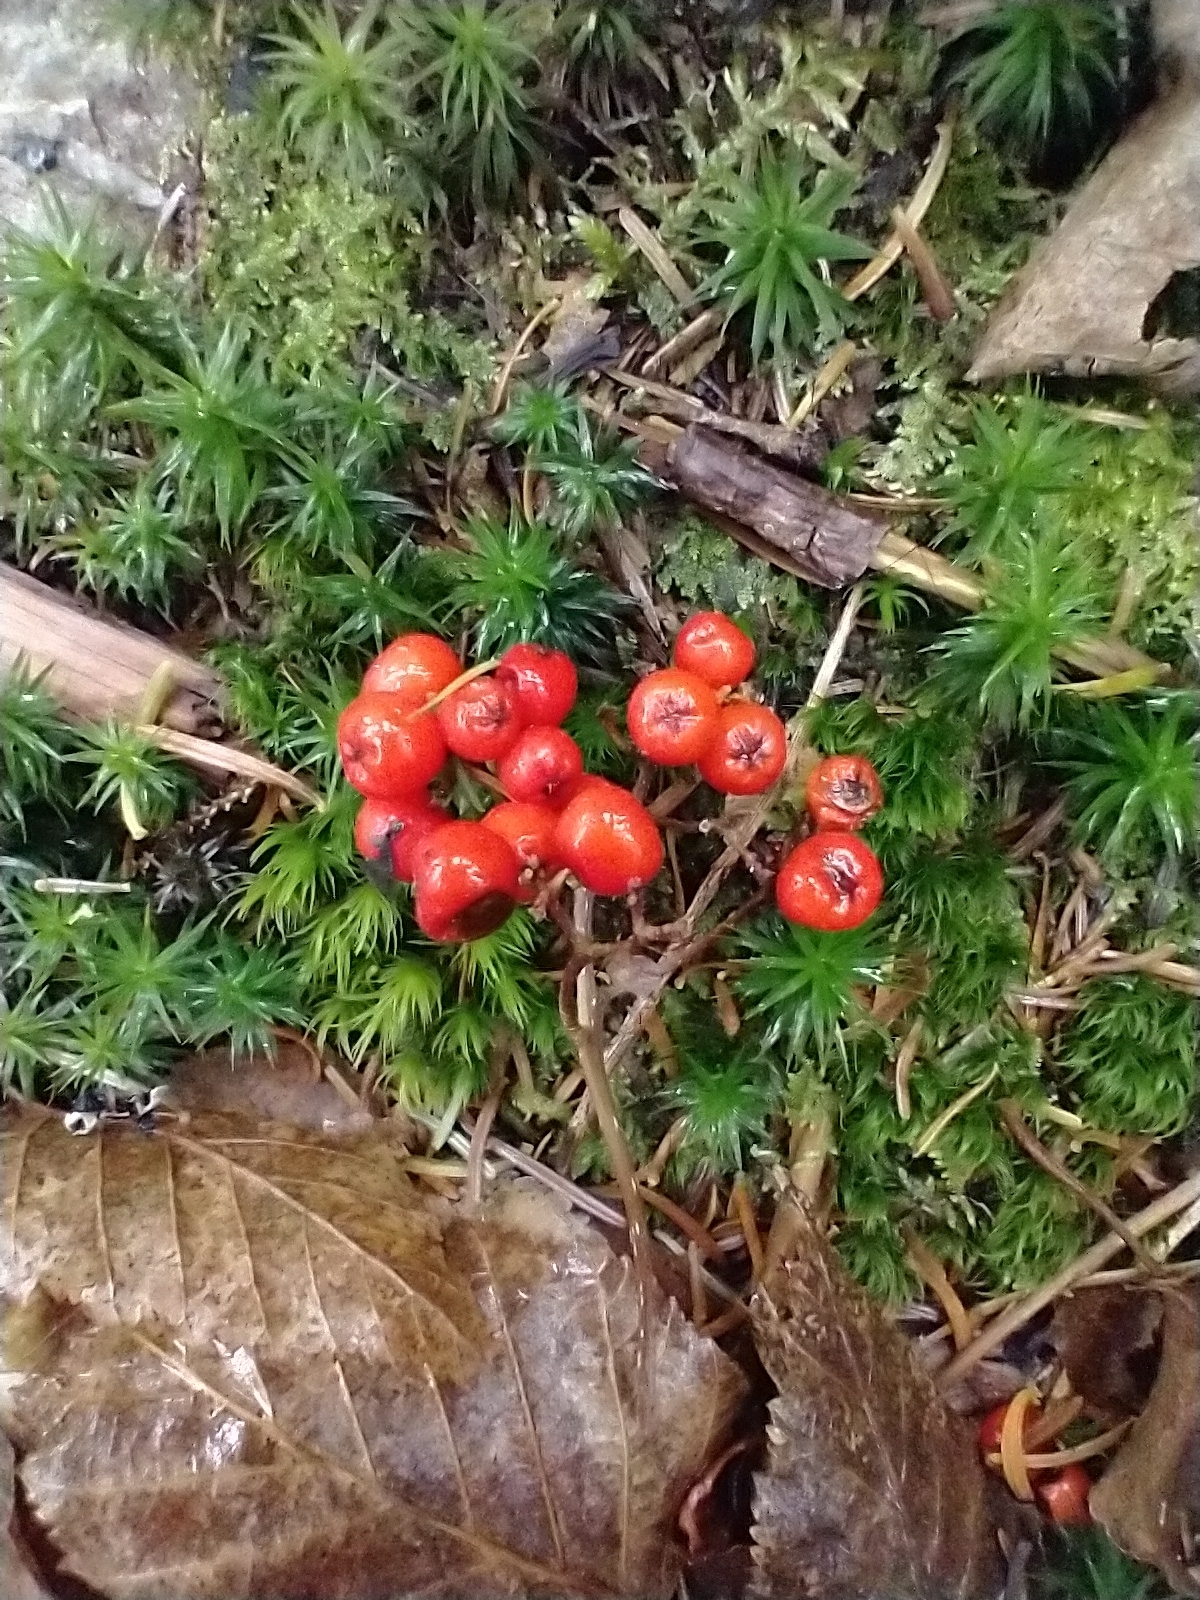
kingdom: Plantae
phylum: Tracheophyta
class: Magnoliopsida
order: Rosales
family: Rosaceae
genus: Sorbus
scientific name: Sorbus americana
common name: American mountain-ash
